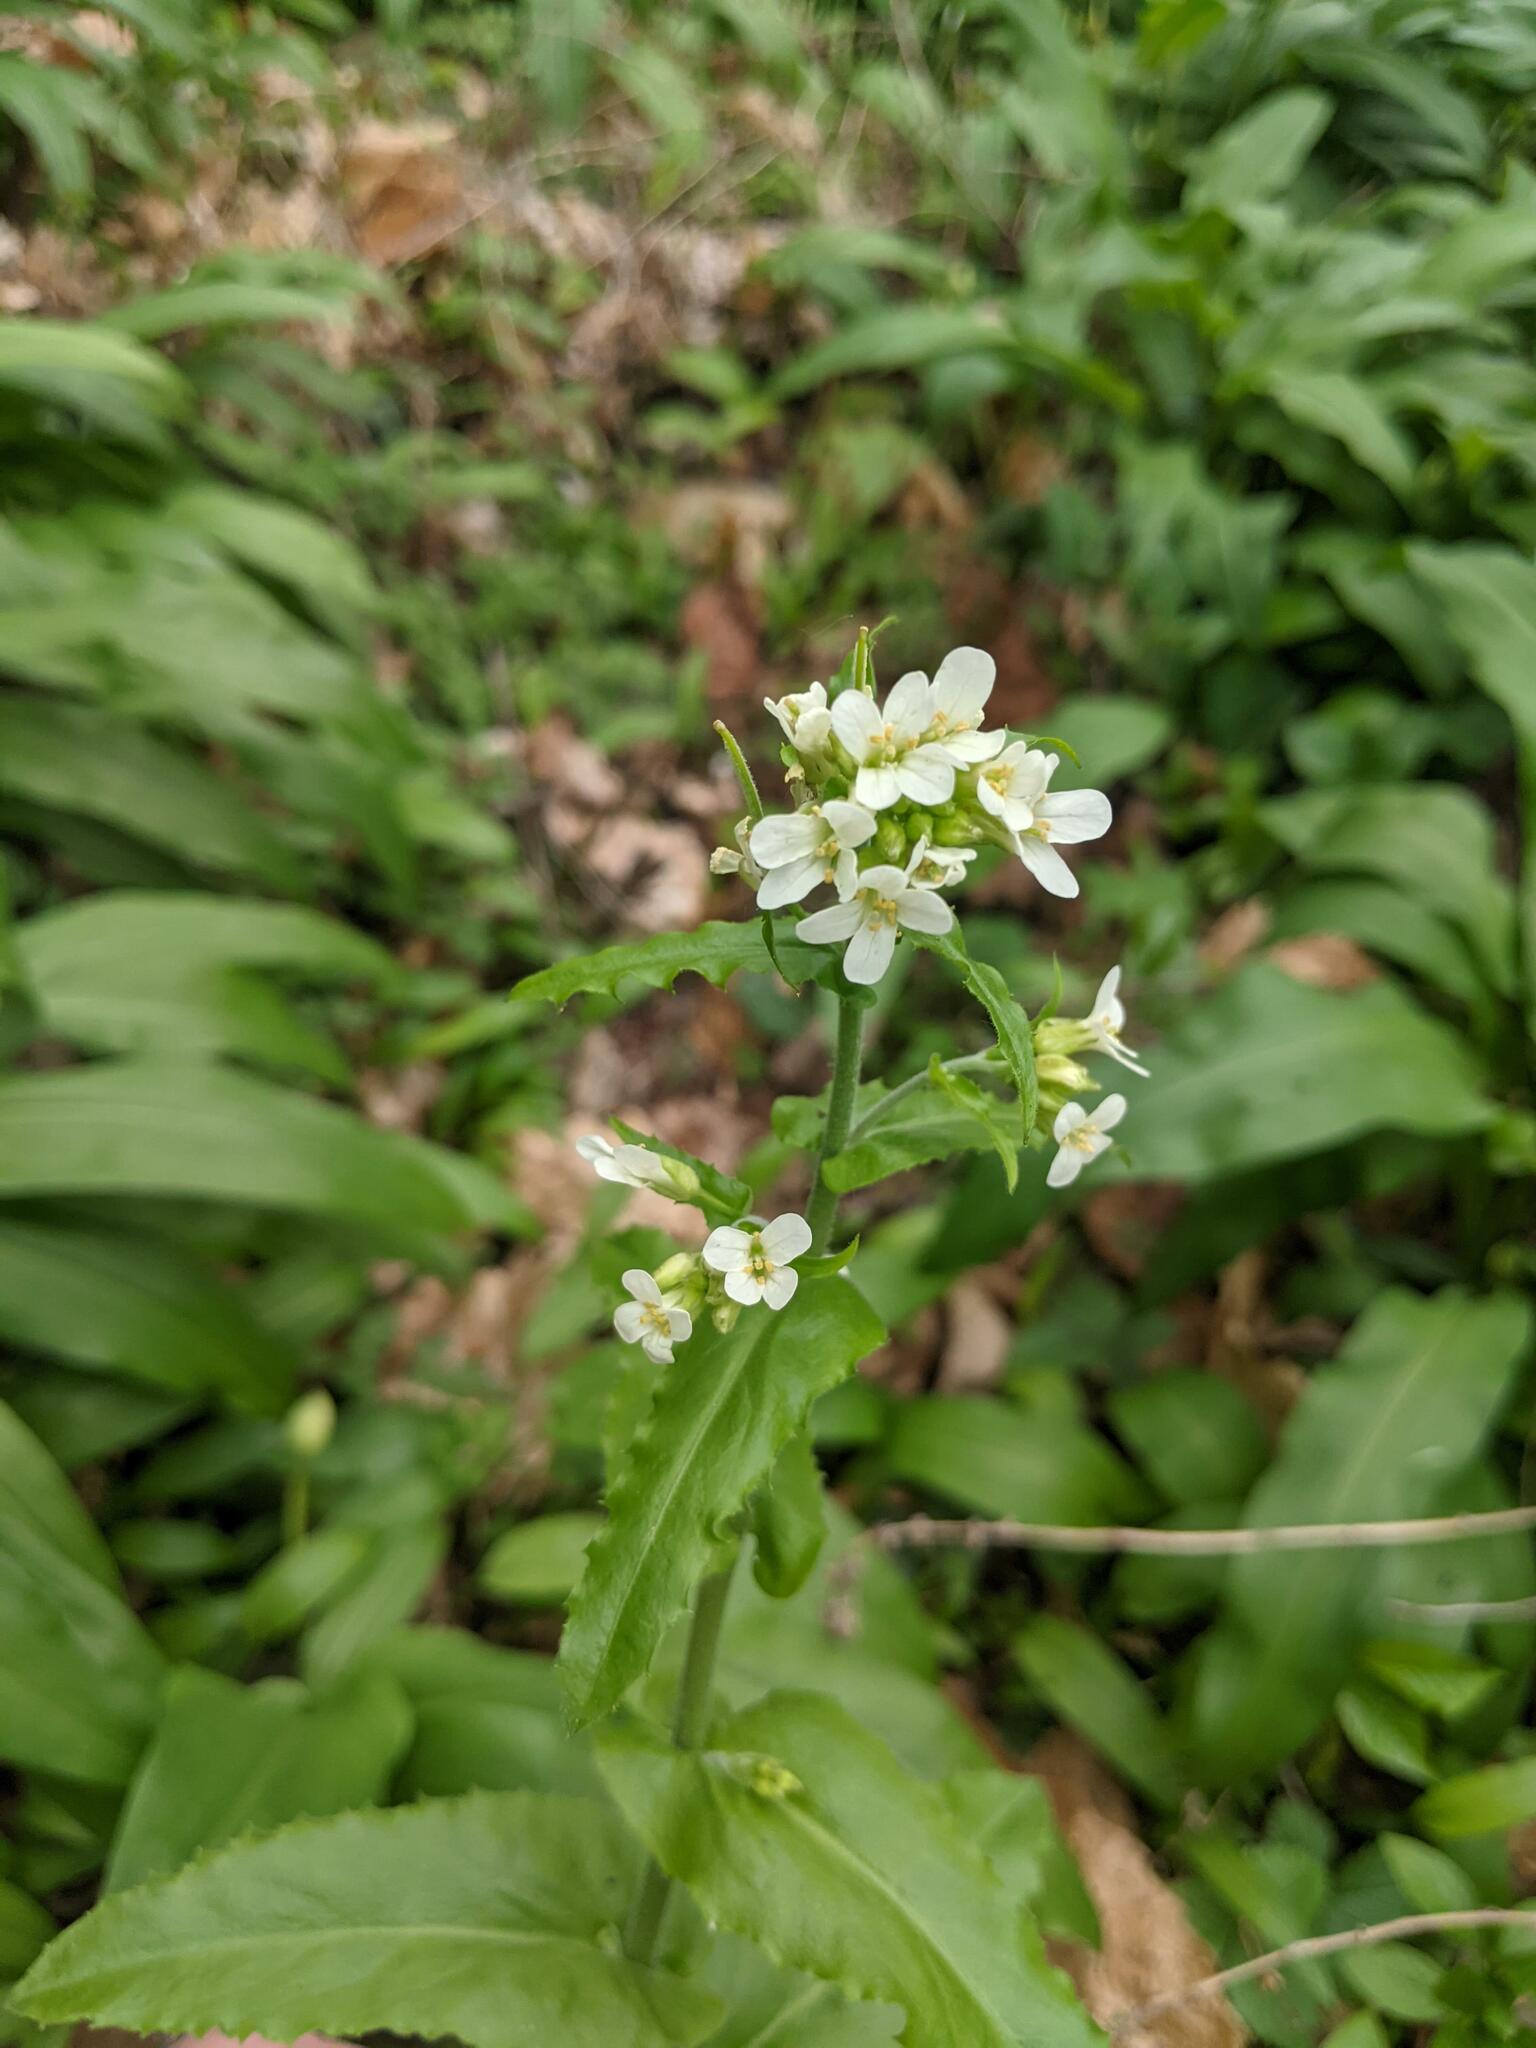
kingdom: Plantae
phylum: Tracheophyta
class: Magnoliopsida
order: Brassicales
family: Brassicaceae
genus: Pseudoturritis
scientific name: Pseudoturritis turrita
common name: Tower cress
